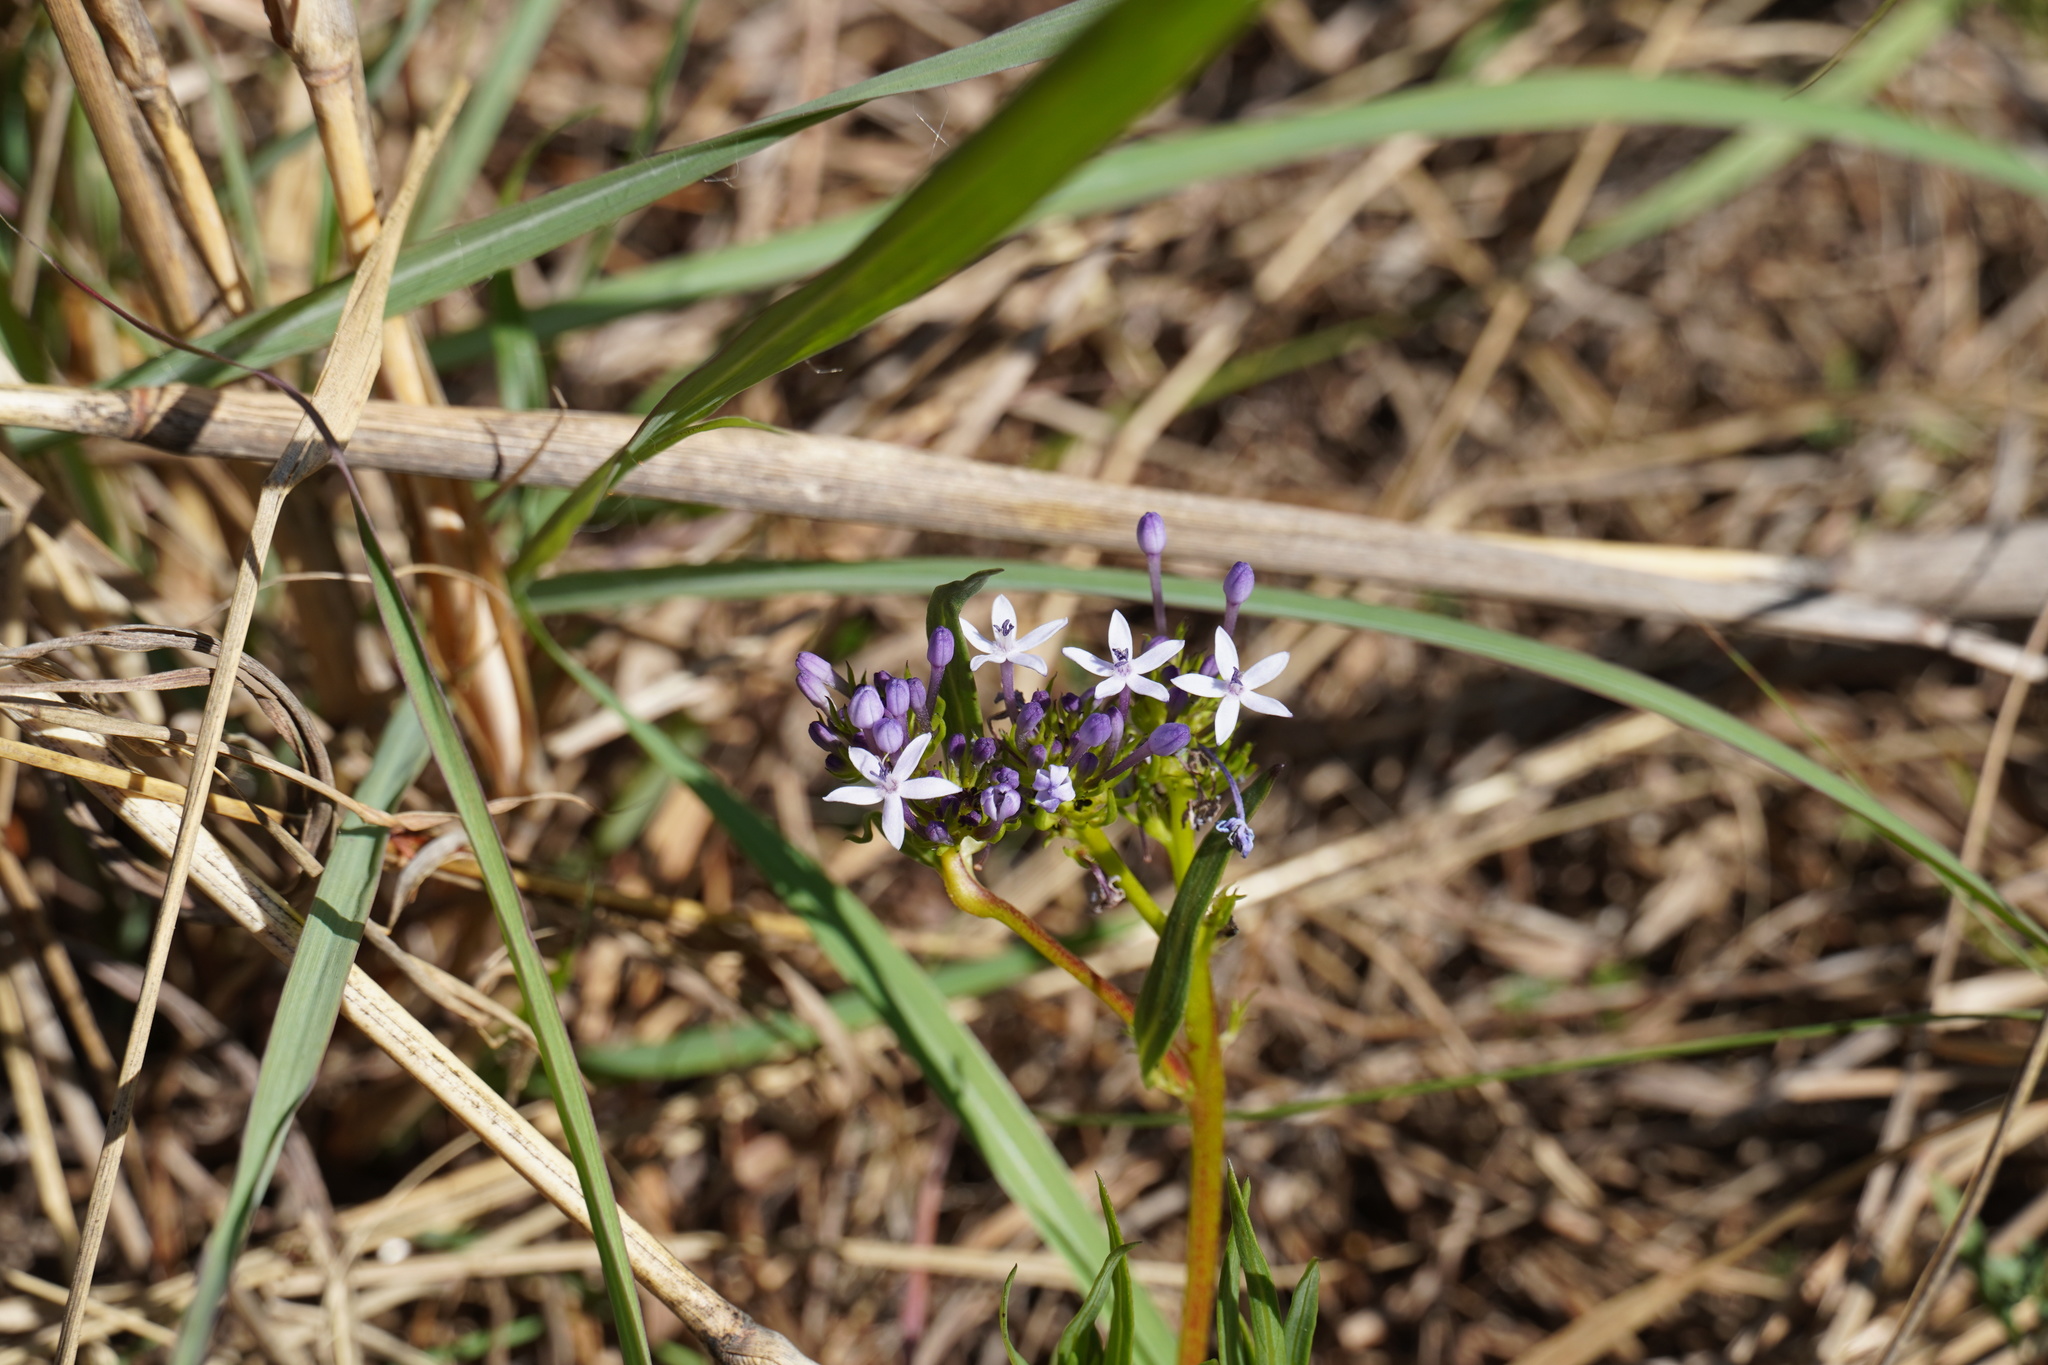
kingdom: Plantae
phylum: Tracheophyta
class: Magnoliopsida
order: Gentianales
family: Rubiaceae
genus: Pentanisia
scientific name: Pentanisia angustifolia
